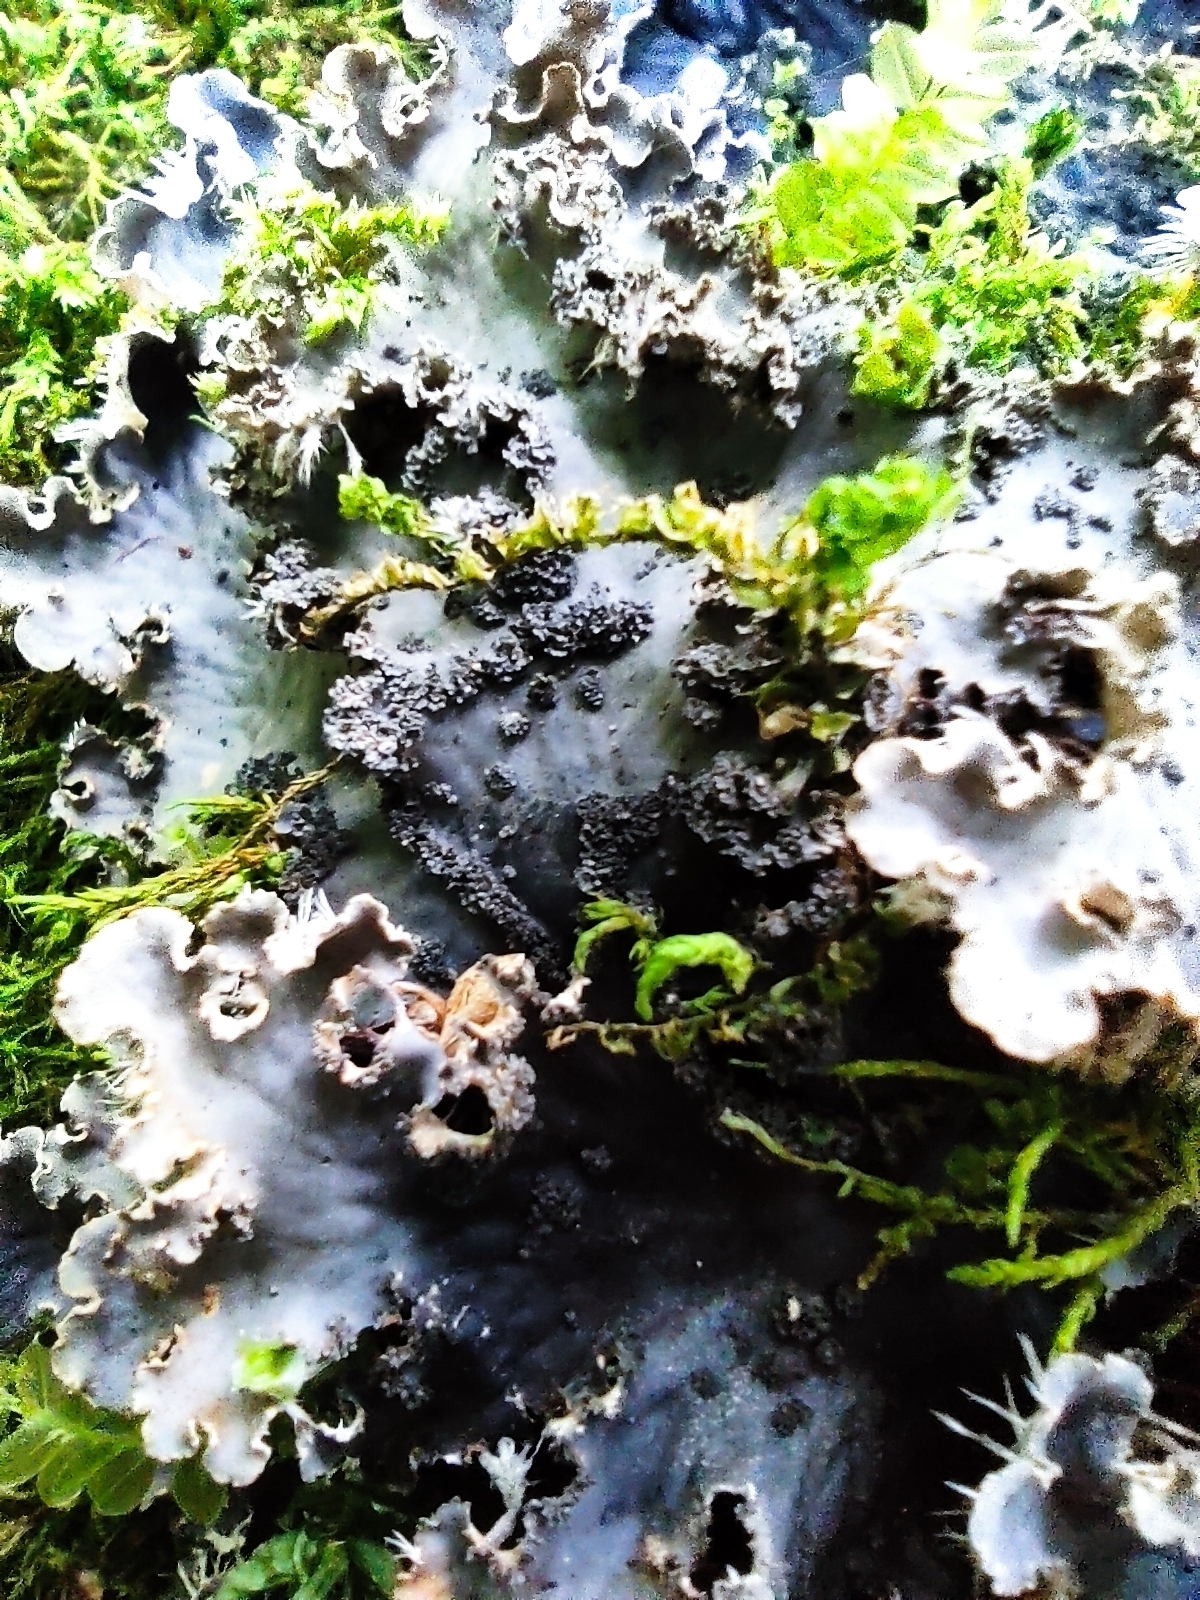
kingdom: Fungi
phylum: Ascomycota
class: Lecanoromycetes
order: Peltigerales
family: Peltigeraceae
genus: Peltigera
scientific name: Peltigera praetextata
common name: Scaly dog-lichen
